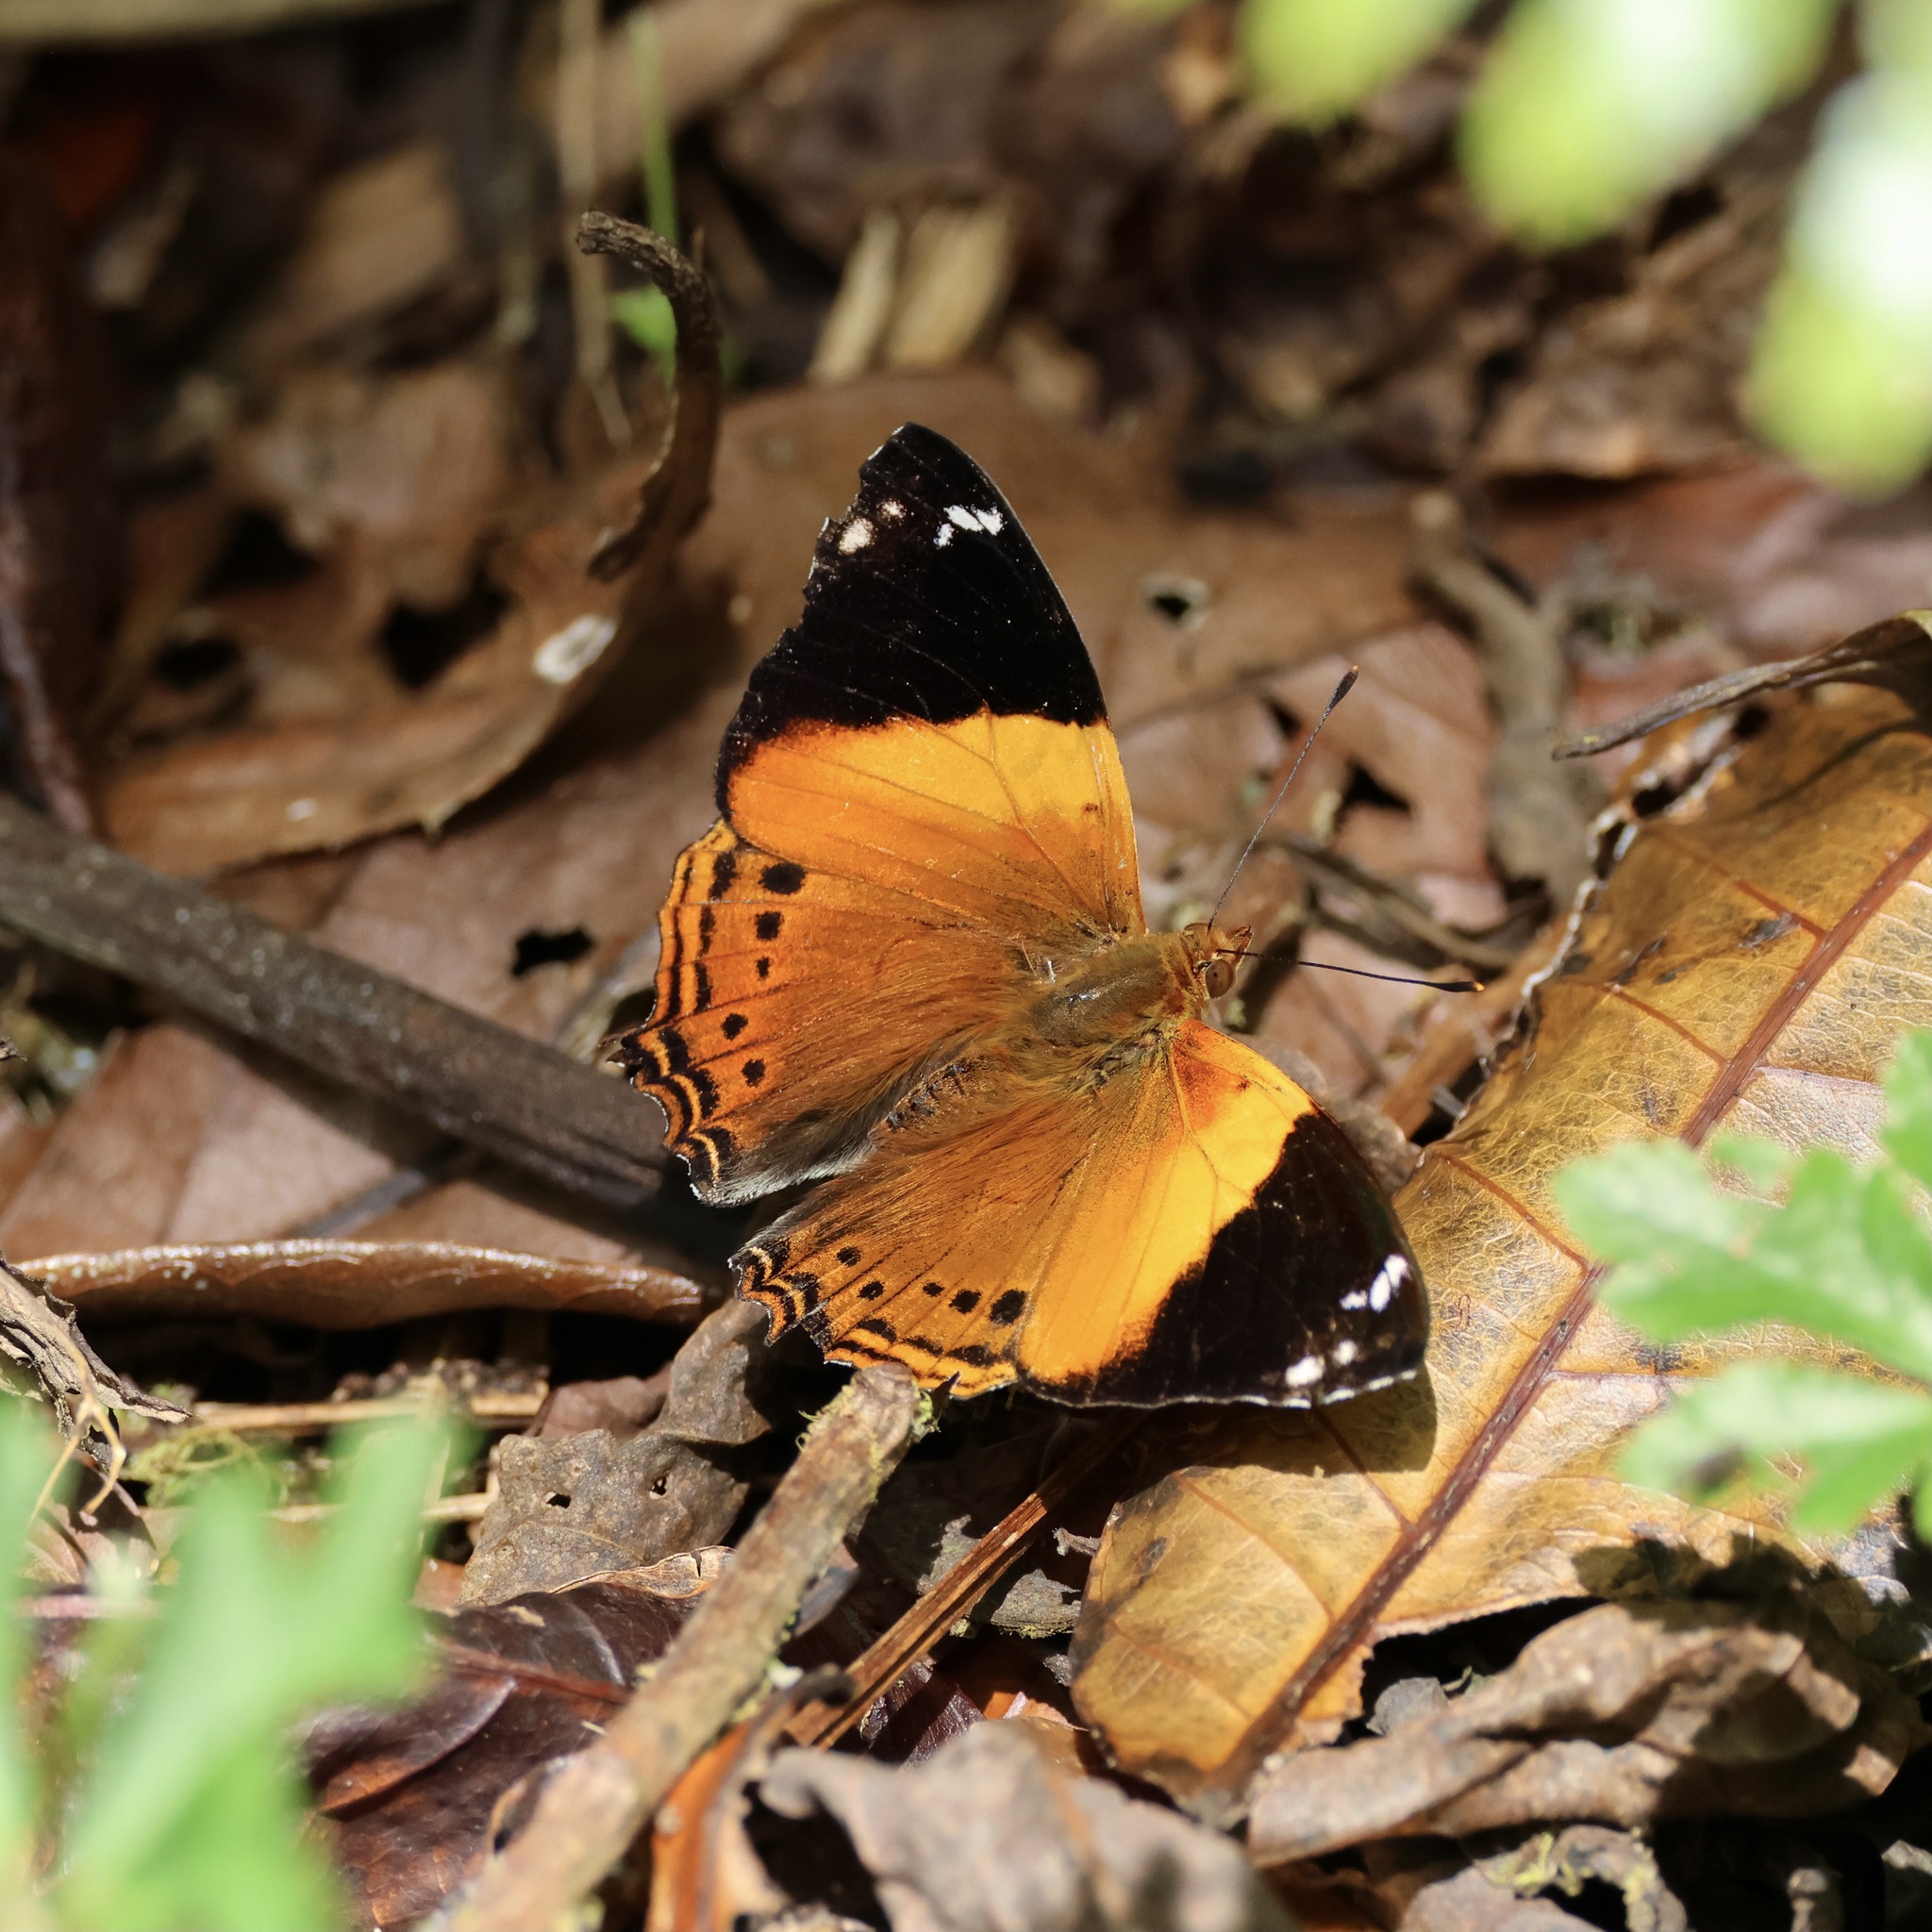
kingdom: Animalia
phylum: Arthropoda
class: Insecta
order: Lepidoptera
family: Nymphalidae
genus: Hypanartia
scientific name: Hypanartia godmanii
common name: Godman's mapwing
